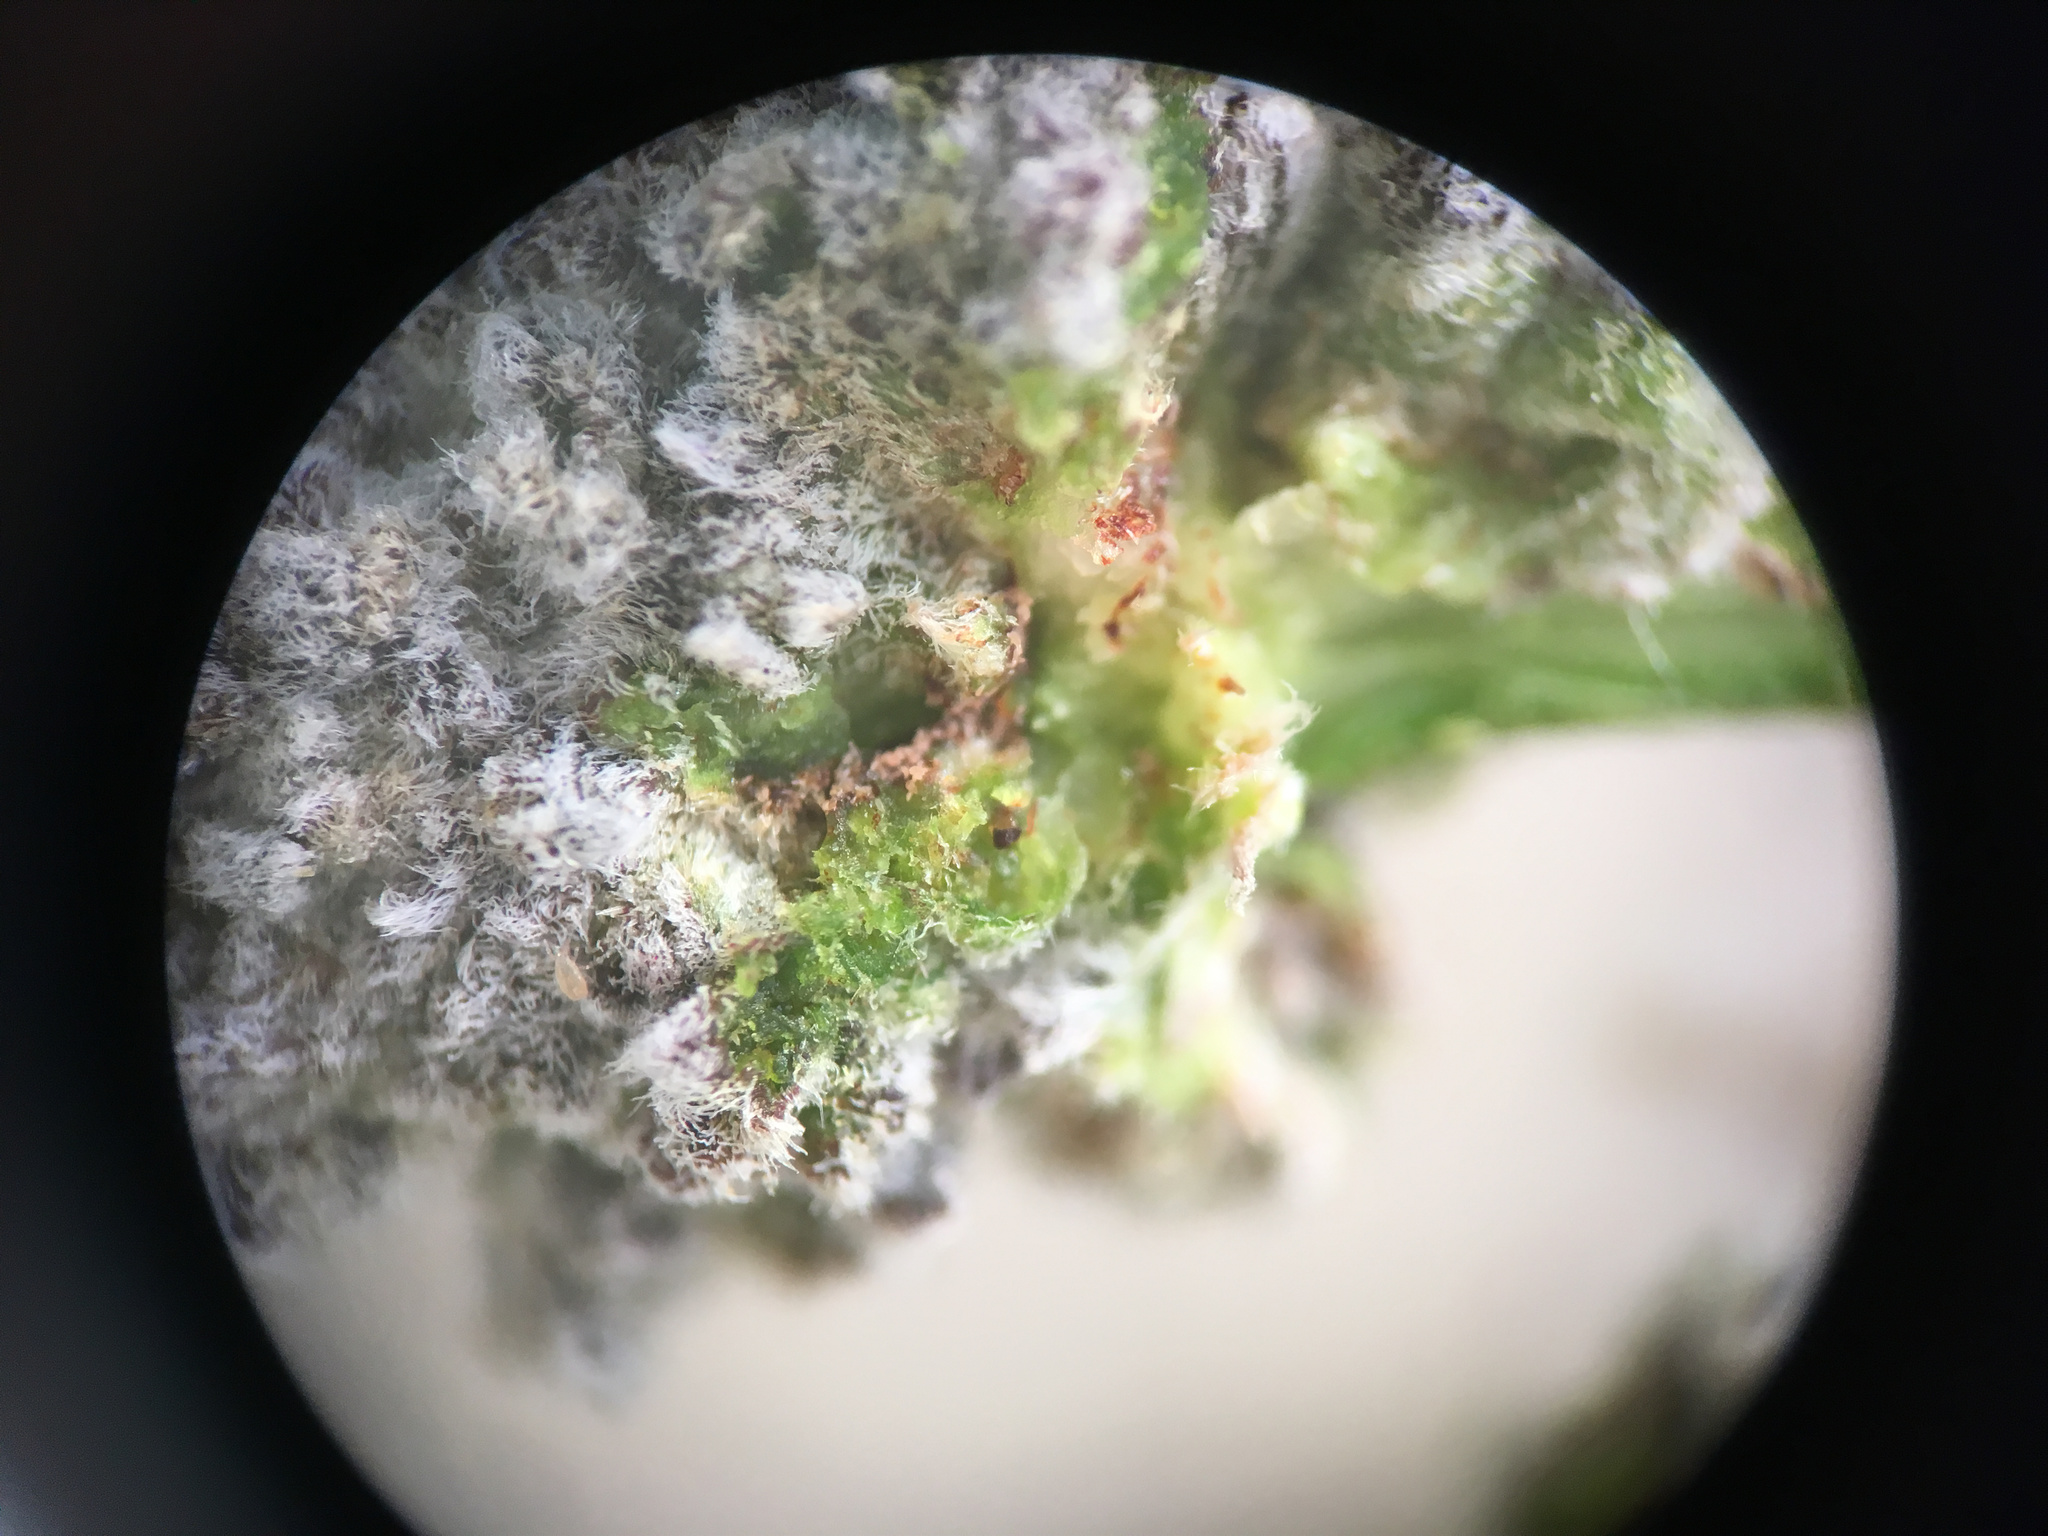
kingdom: Animalia
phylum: Arthropoda
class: Arachnida
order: Trombidiformes
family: Eriophyidae
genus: Aceria
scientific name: Aceria carmichaeliae
